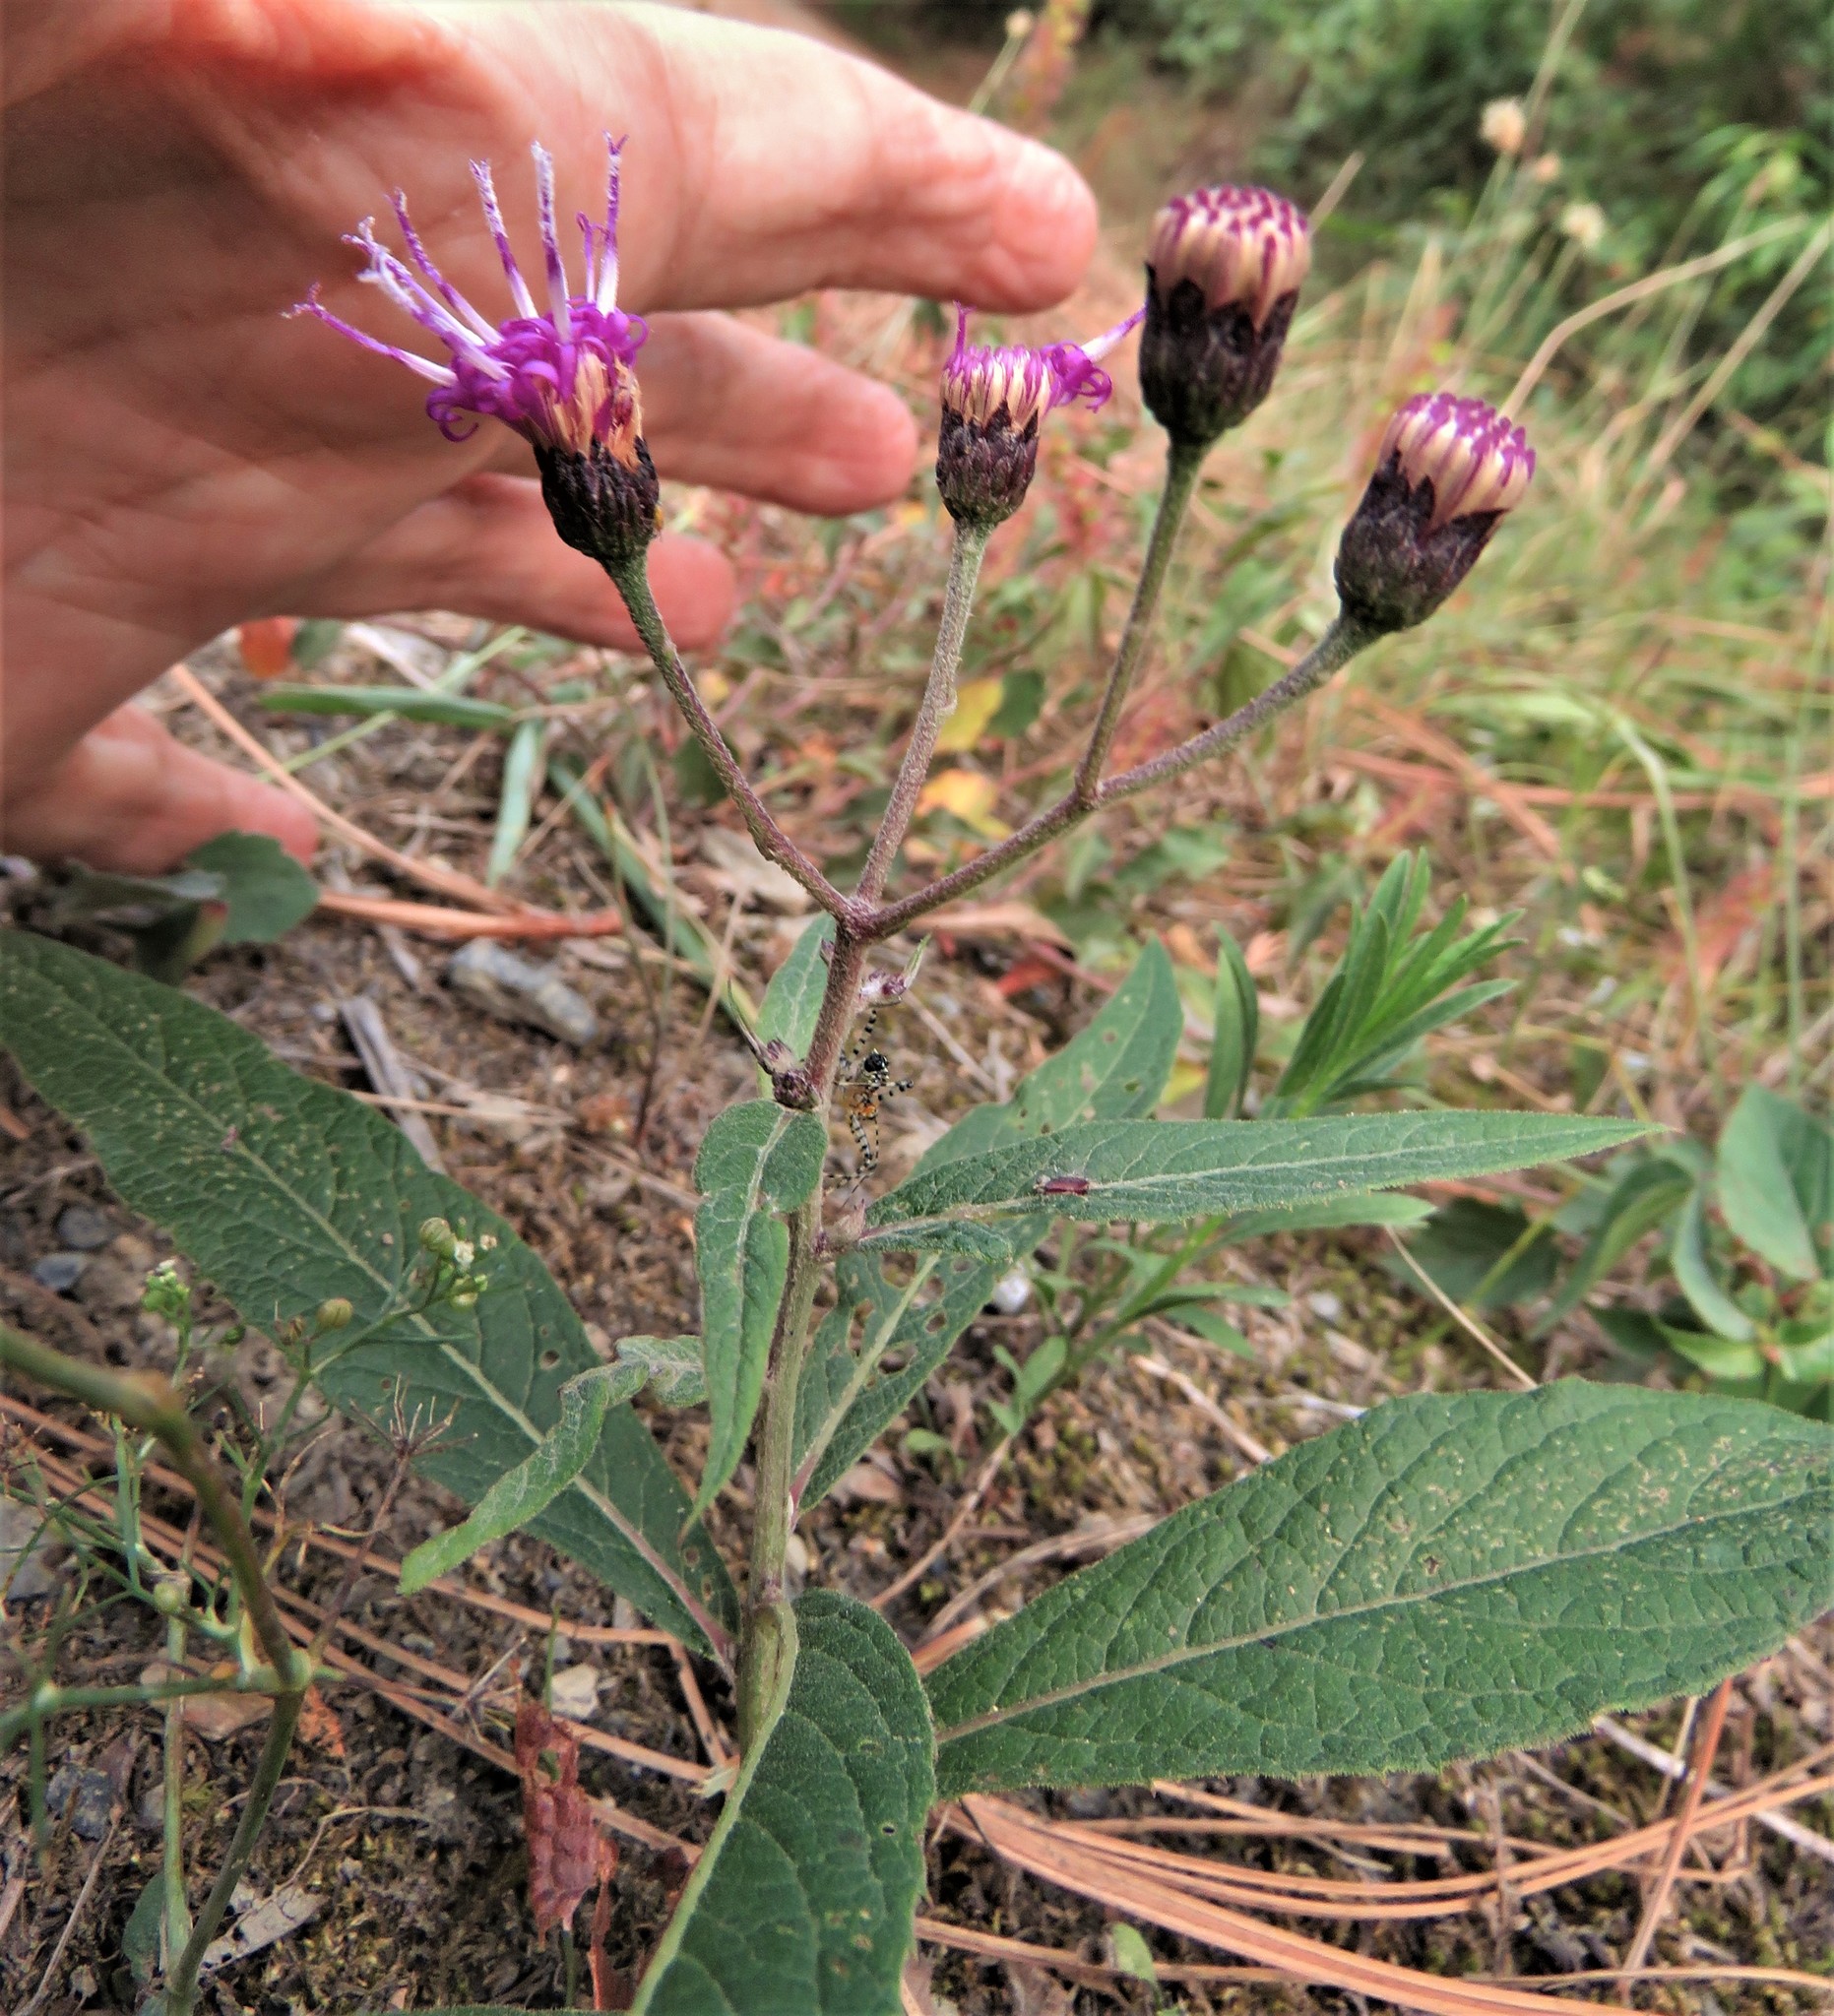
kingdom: Plantae
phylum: Tracheophyta
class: Magnoliopsida
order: Asterales
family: Asteraceae
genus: Vernonia
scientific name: Vernonia greggii
